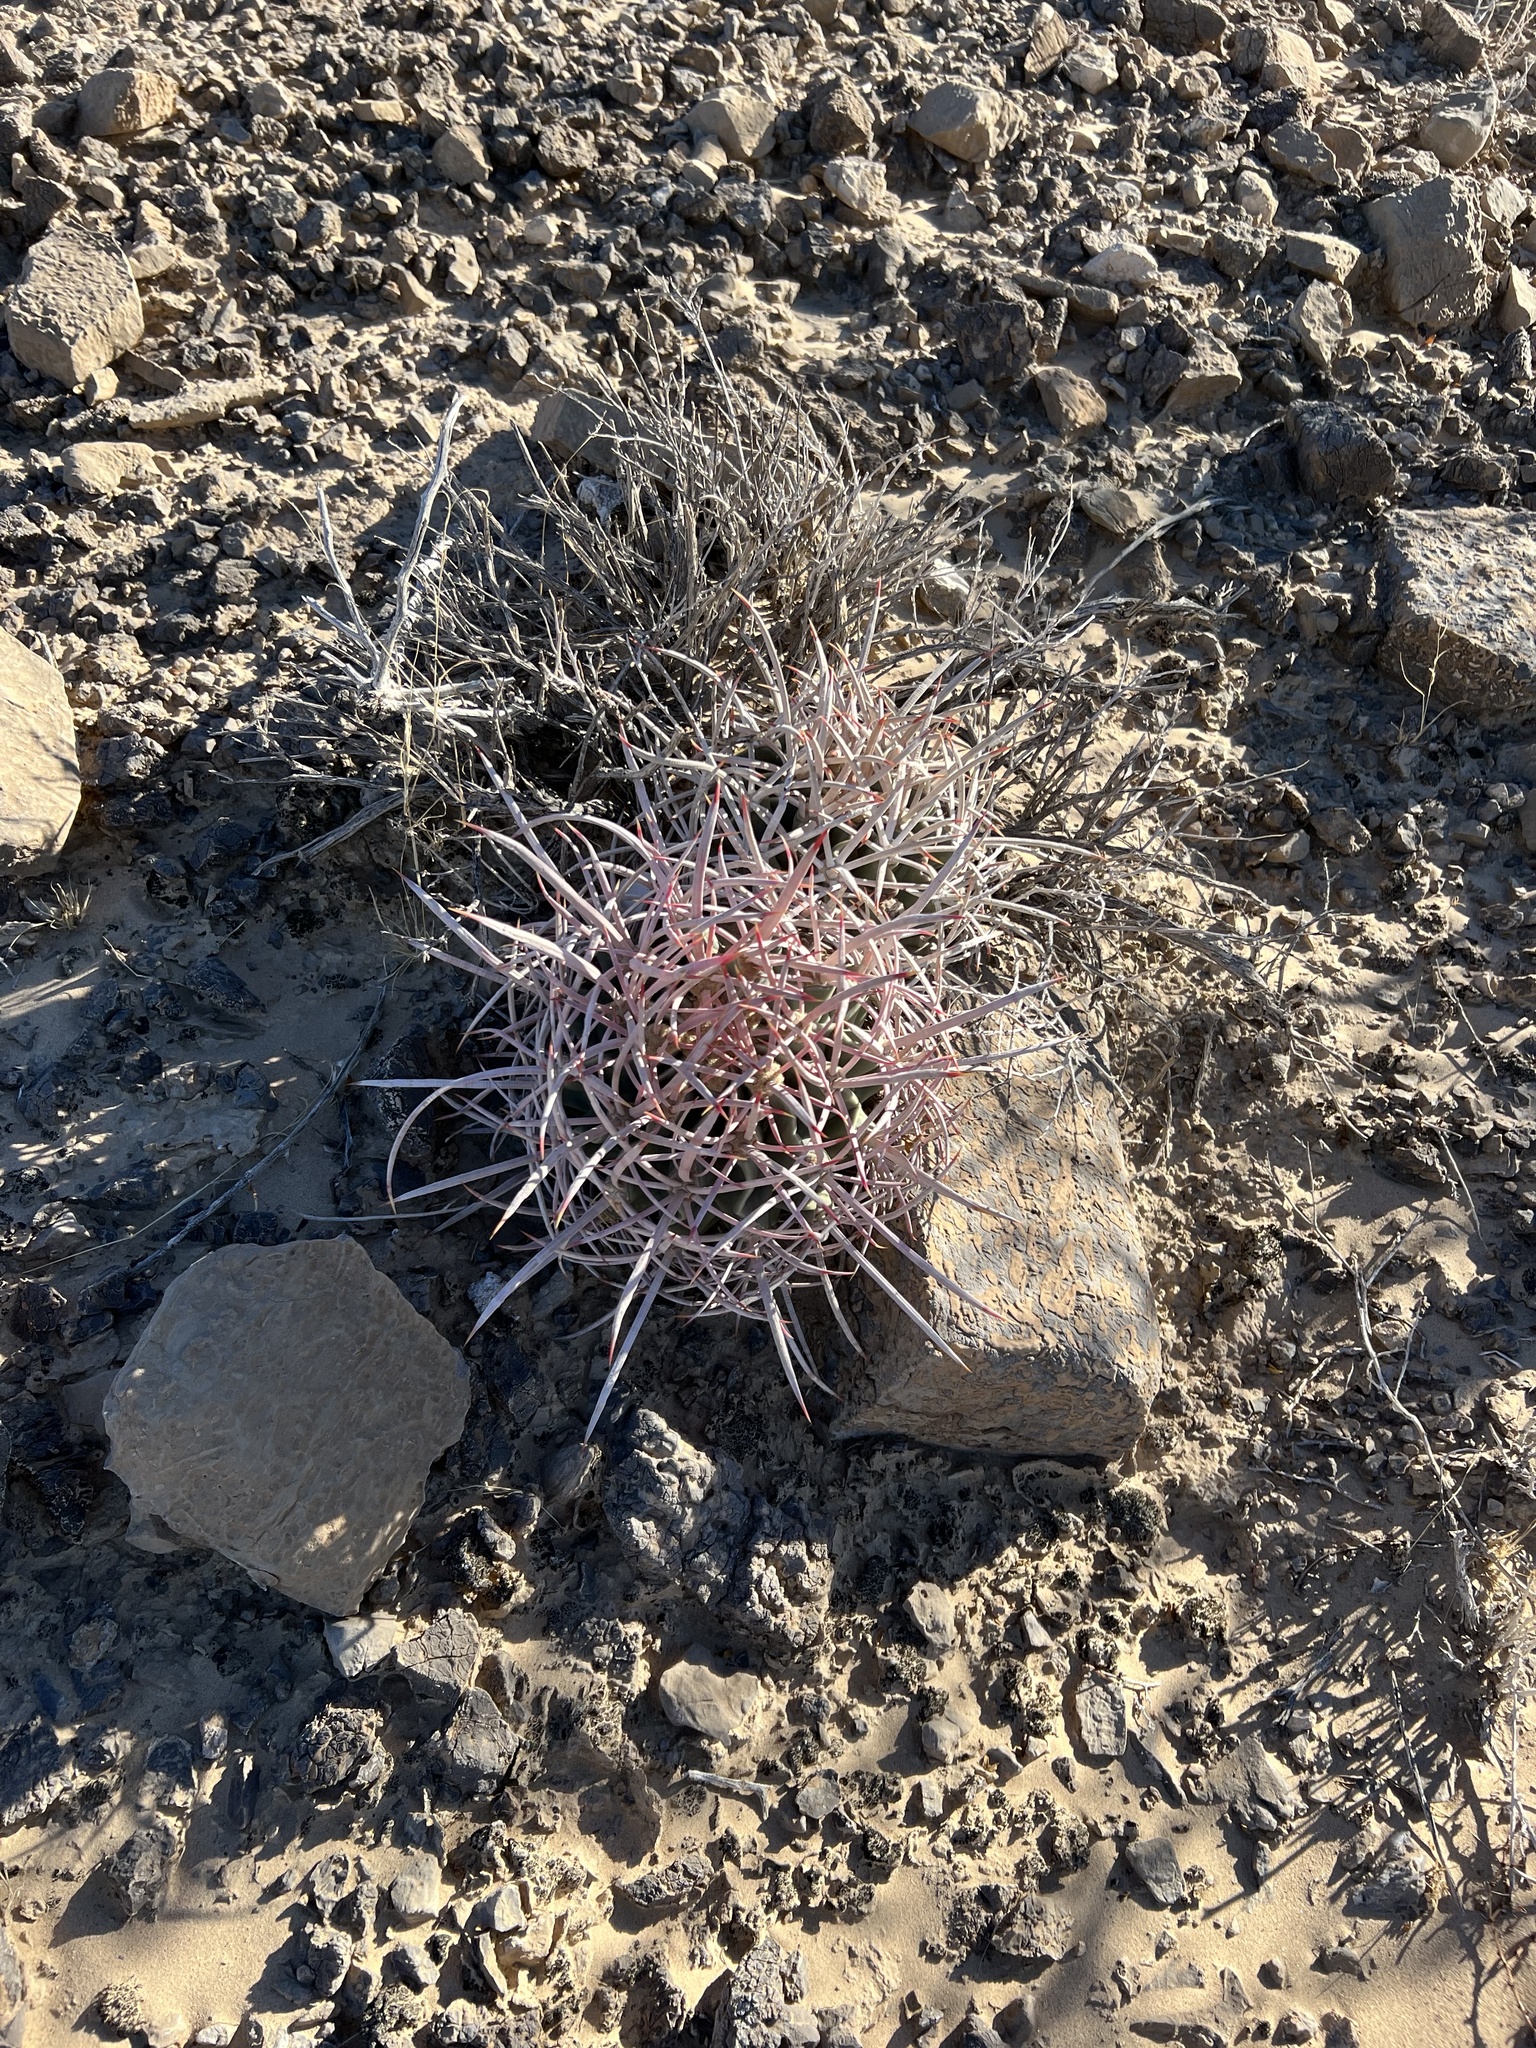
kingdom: Plantae
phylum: Tracheophyta
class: Magnoliopsida
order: Caryophyllales
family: Cactaceae
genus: Echinocactus
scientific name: Echinocactus polycephalus
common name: Cottontop cactus
